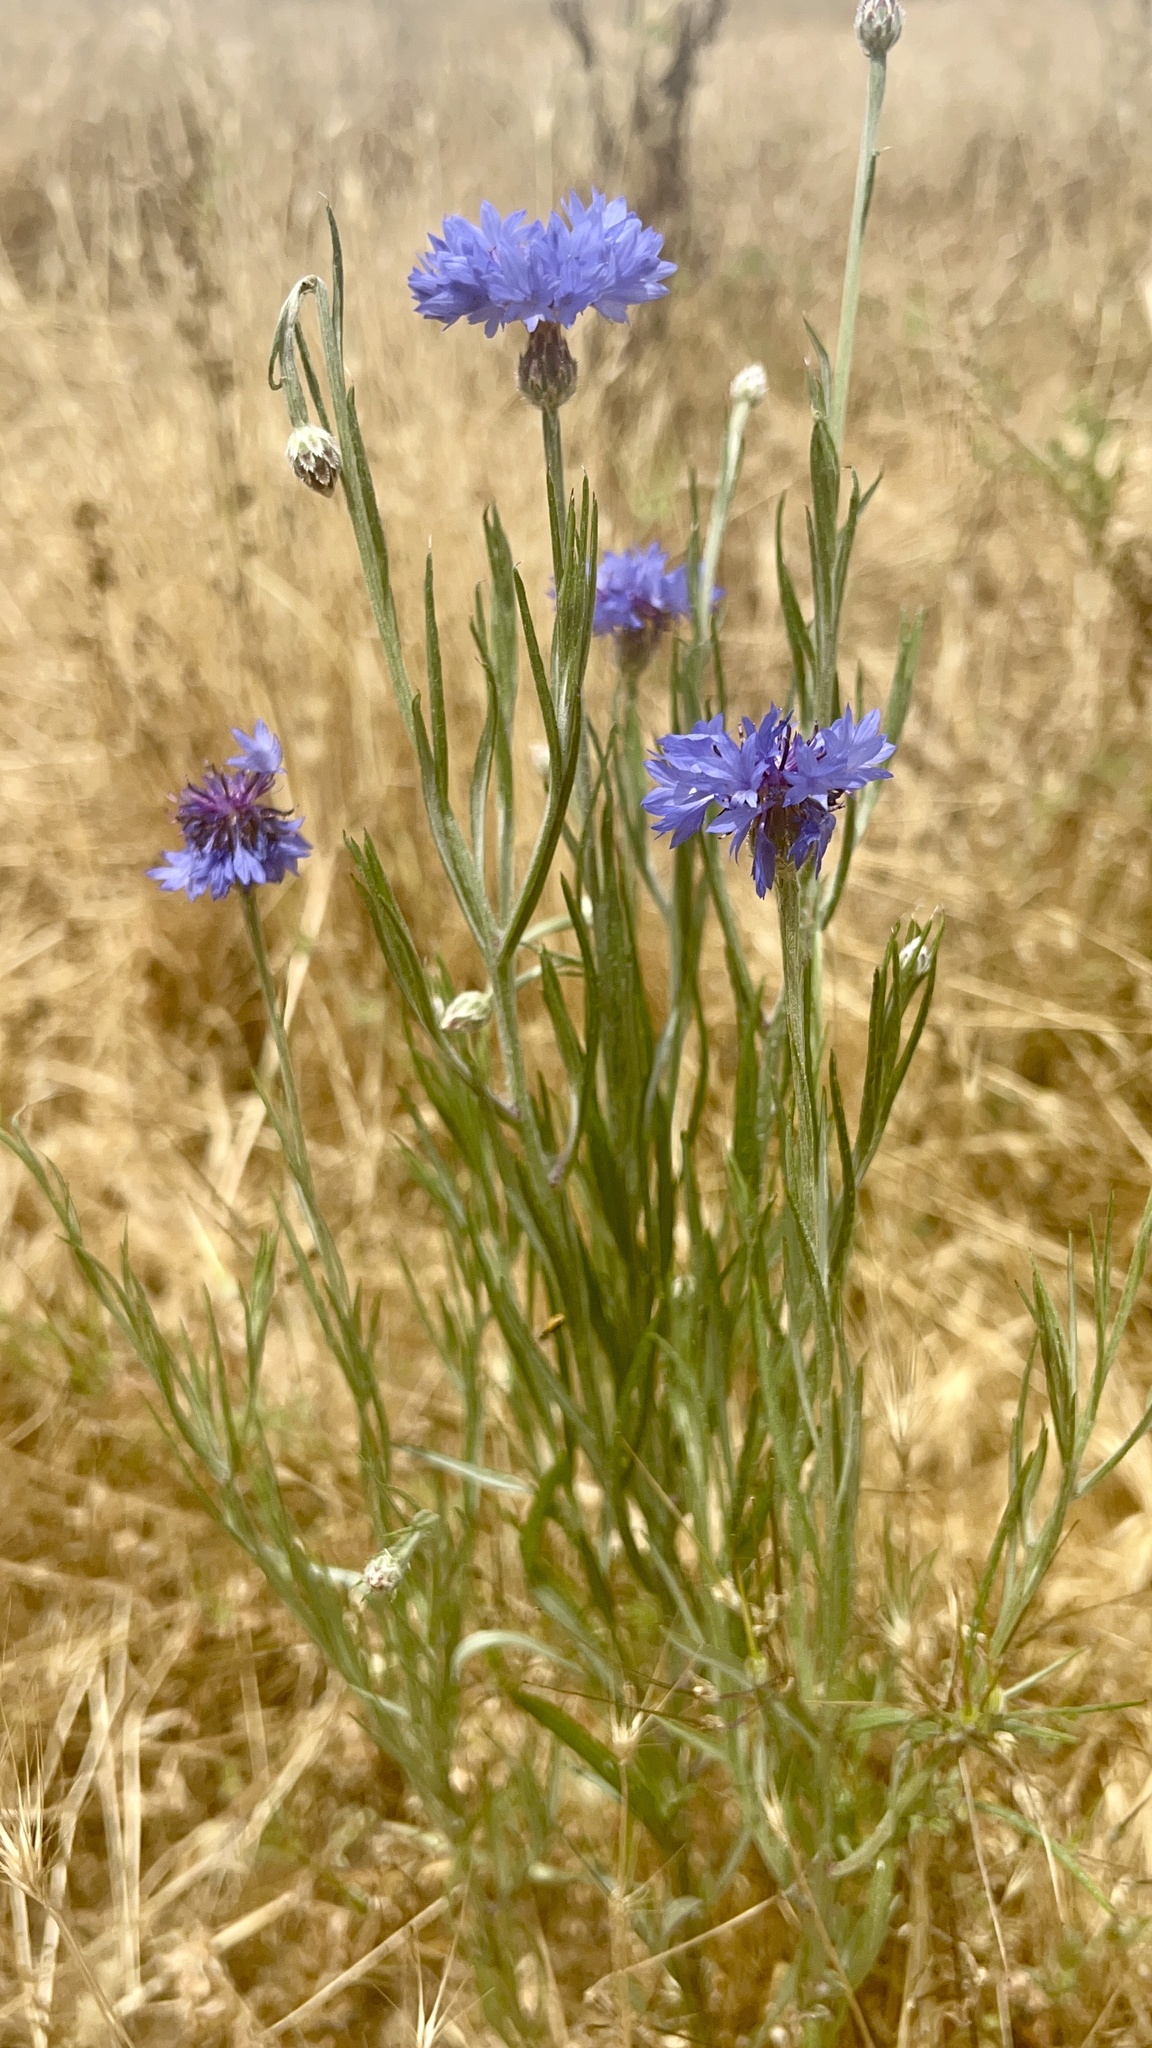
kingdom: Plantae
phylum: Tracheophyta
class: Magnoliopsida
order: Asterales
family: Asteraceae
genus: Centaurea
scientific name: Centaurea cyanus
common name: Cornflower
